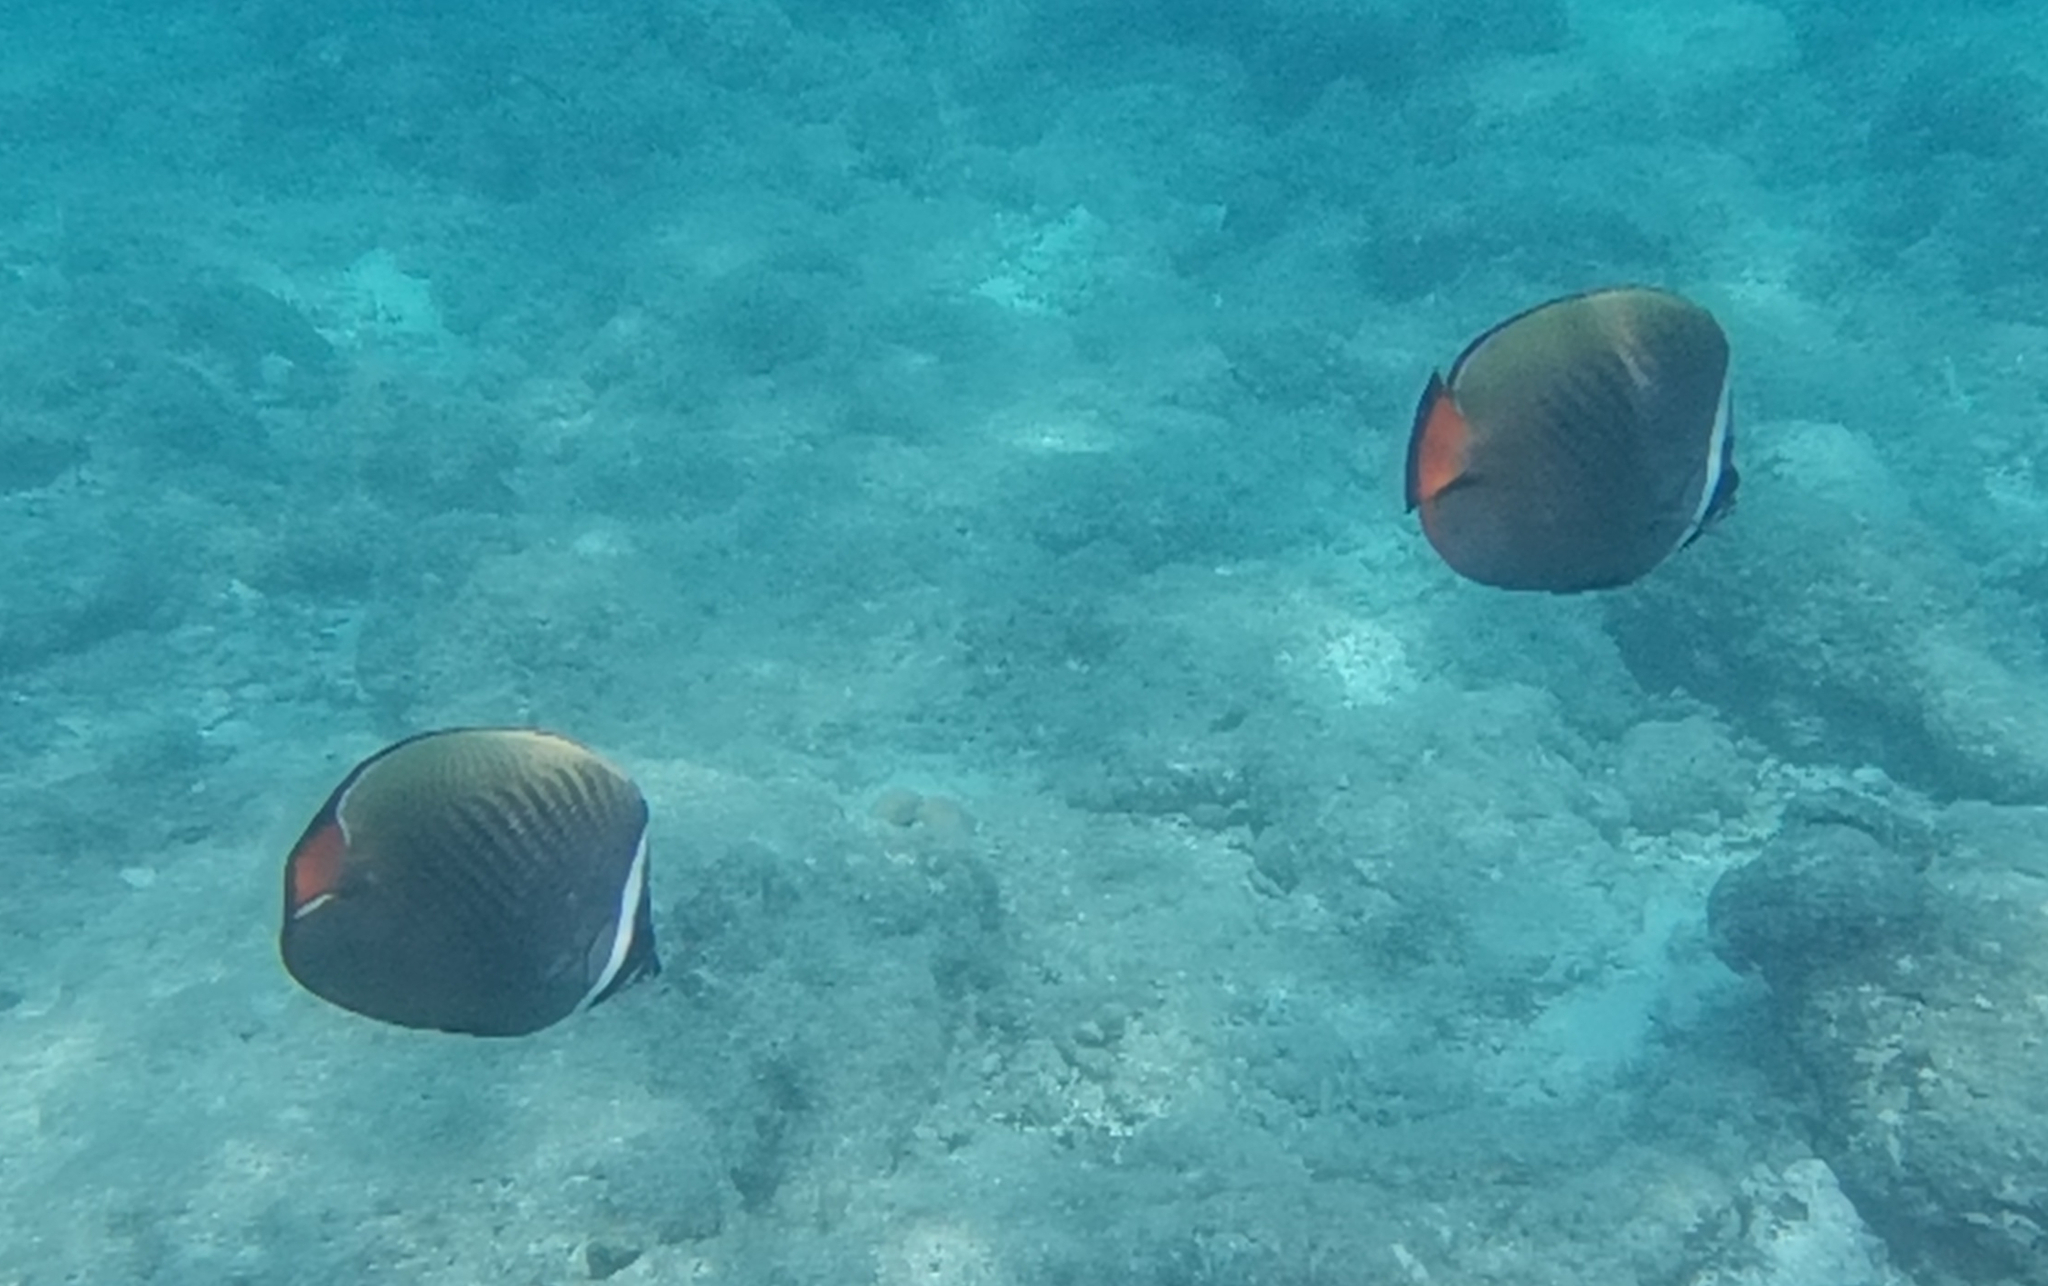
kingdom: Animalia
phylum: Chordata
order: Perciformes
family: Chaetodontidae
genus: Chaetodon
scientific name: Chaetodon collare
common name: Redtail butterflyfish
